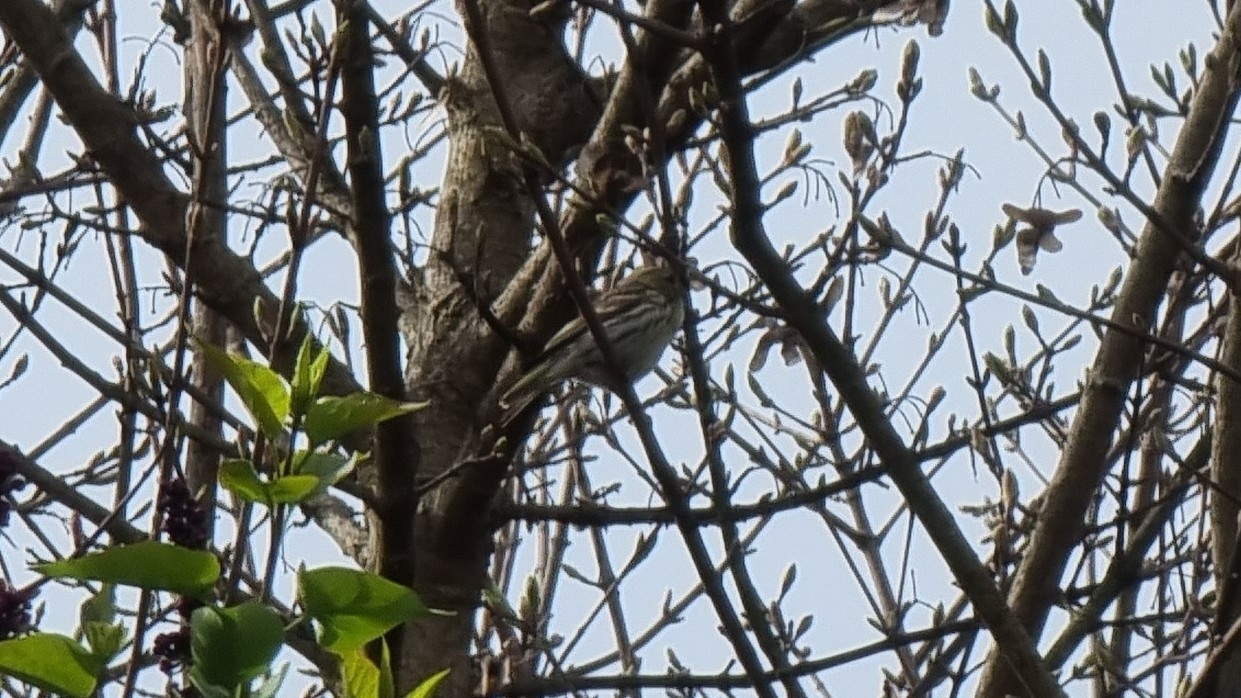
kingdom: Animalia
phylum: Chordata
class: Aves
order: Passeriformes
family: Fringillidae
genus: Serinus
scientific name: Serinus serinus
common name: European serin
